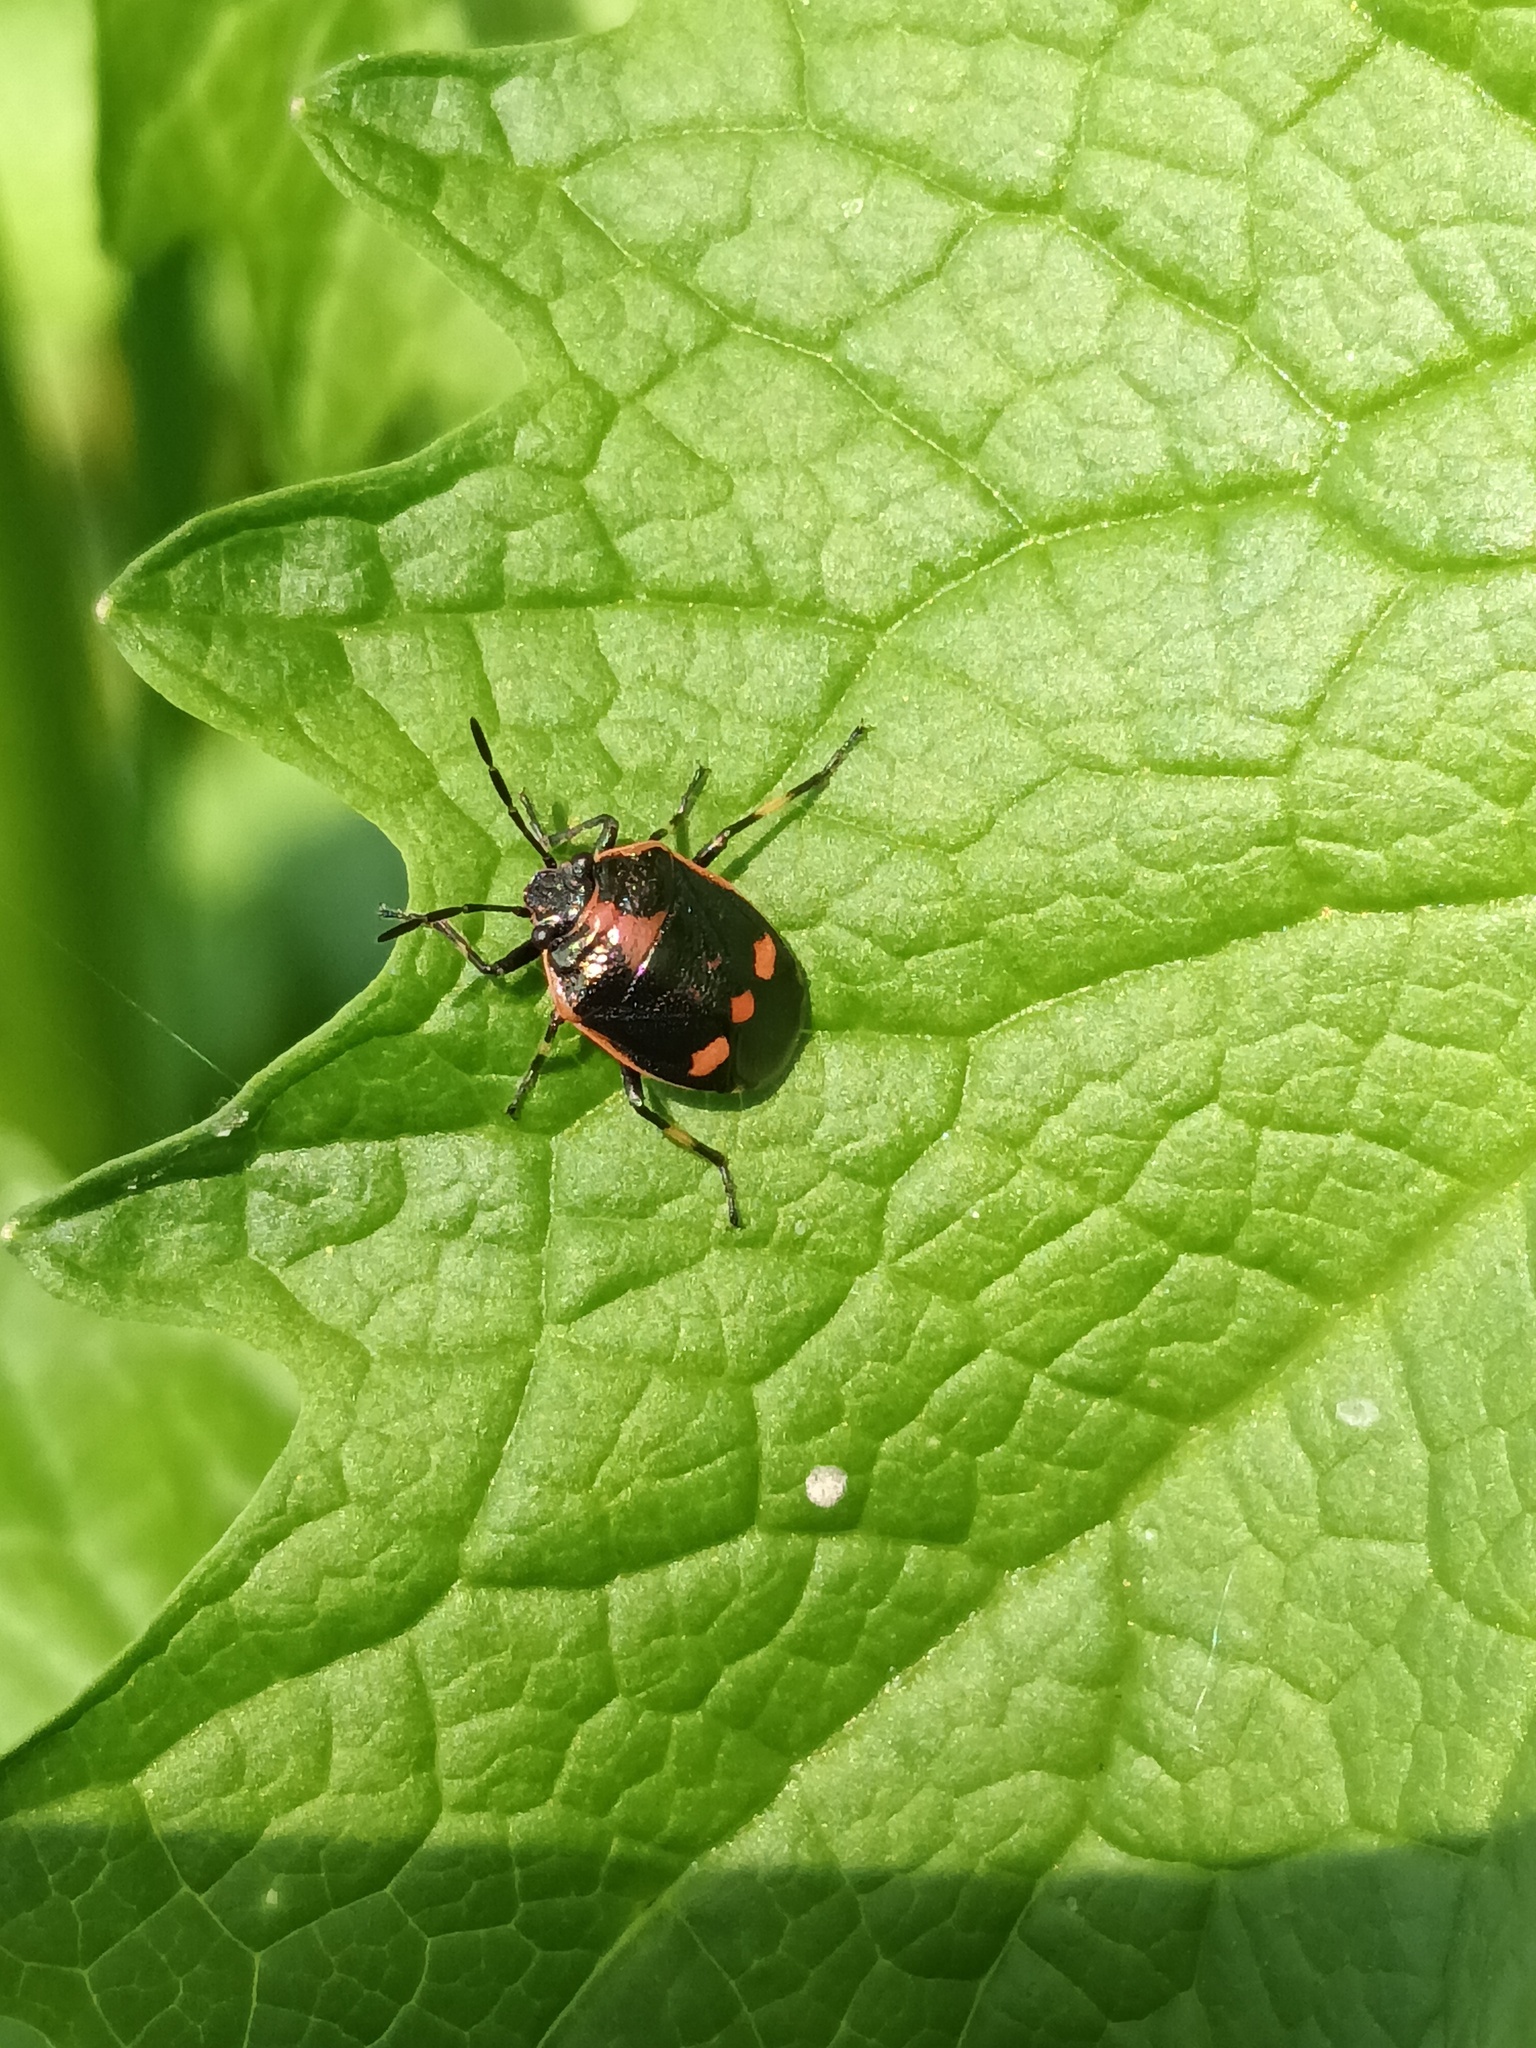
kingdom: Animalia
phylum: Arthropoda
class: Insecta
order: Hemiptera
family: Pentatomidae
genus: Eurydema
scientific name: Eurydema oleracea
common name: Cabbage bug
